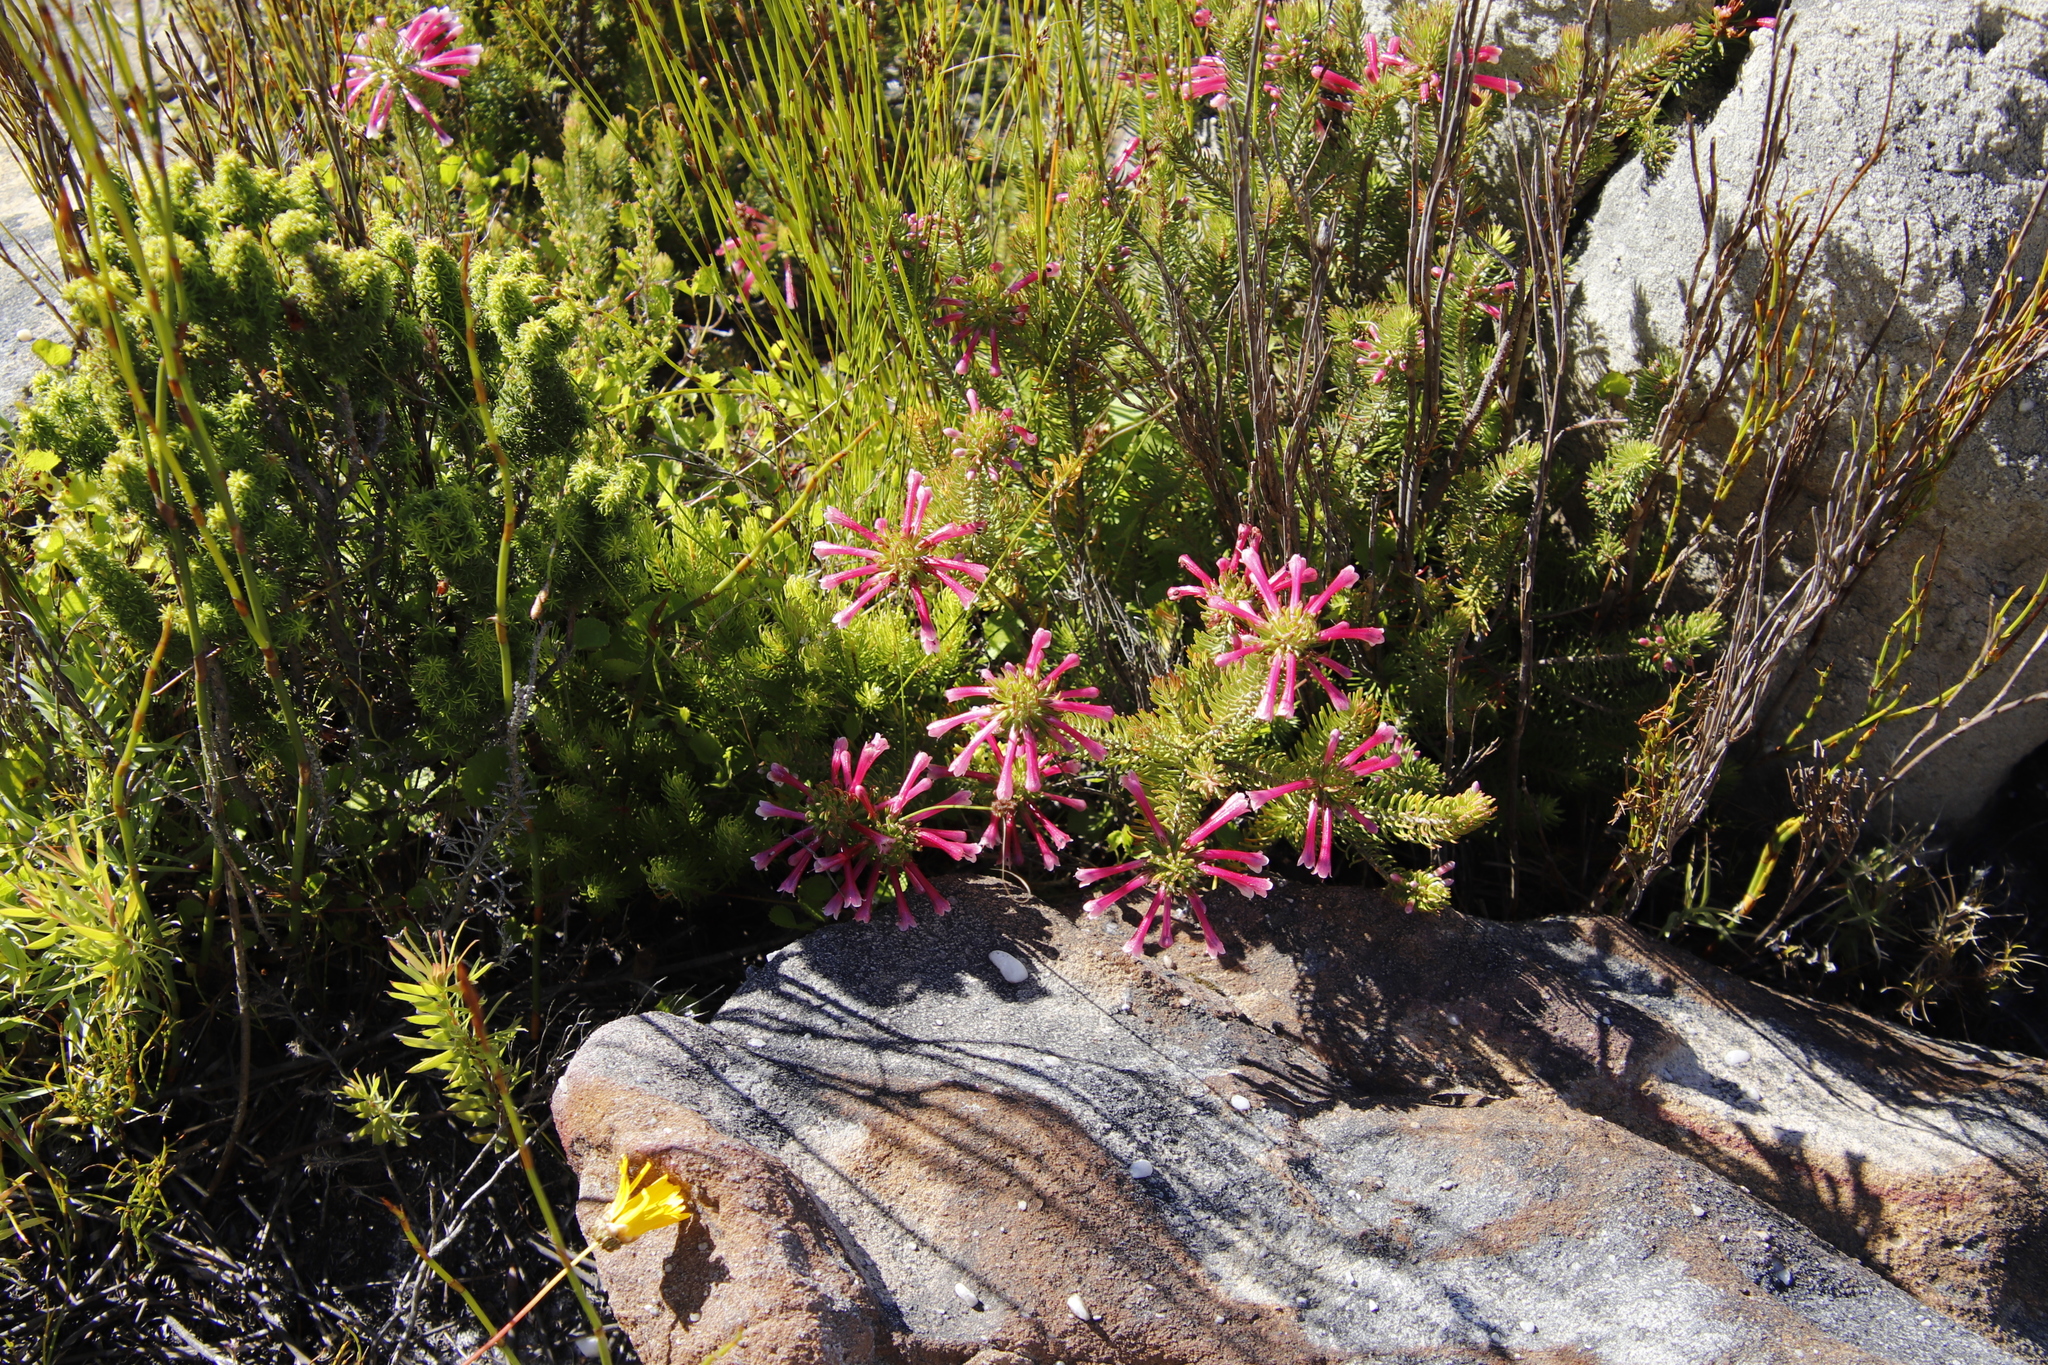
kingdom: Plantae
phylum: Tracheophyta
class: Magnoliopsida
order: Ericales
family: Ericaceae
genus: Erica
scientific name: Erica thomae
